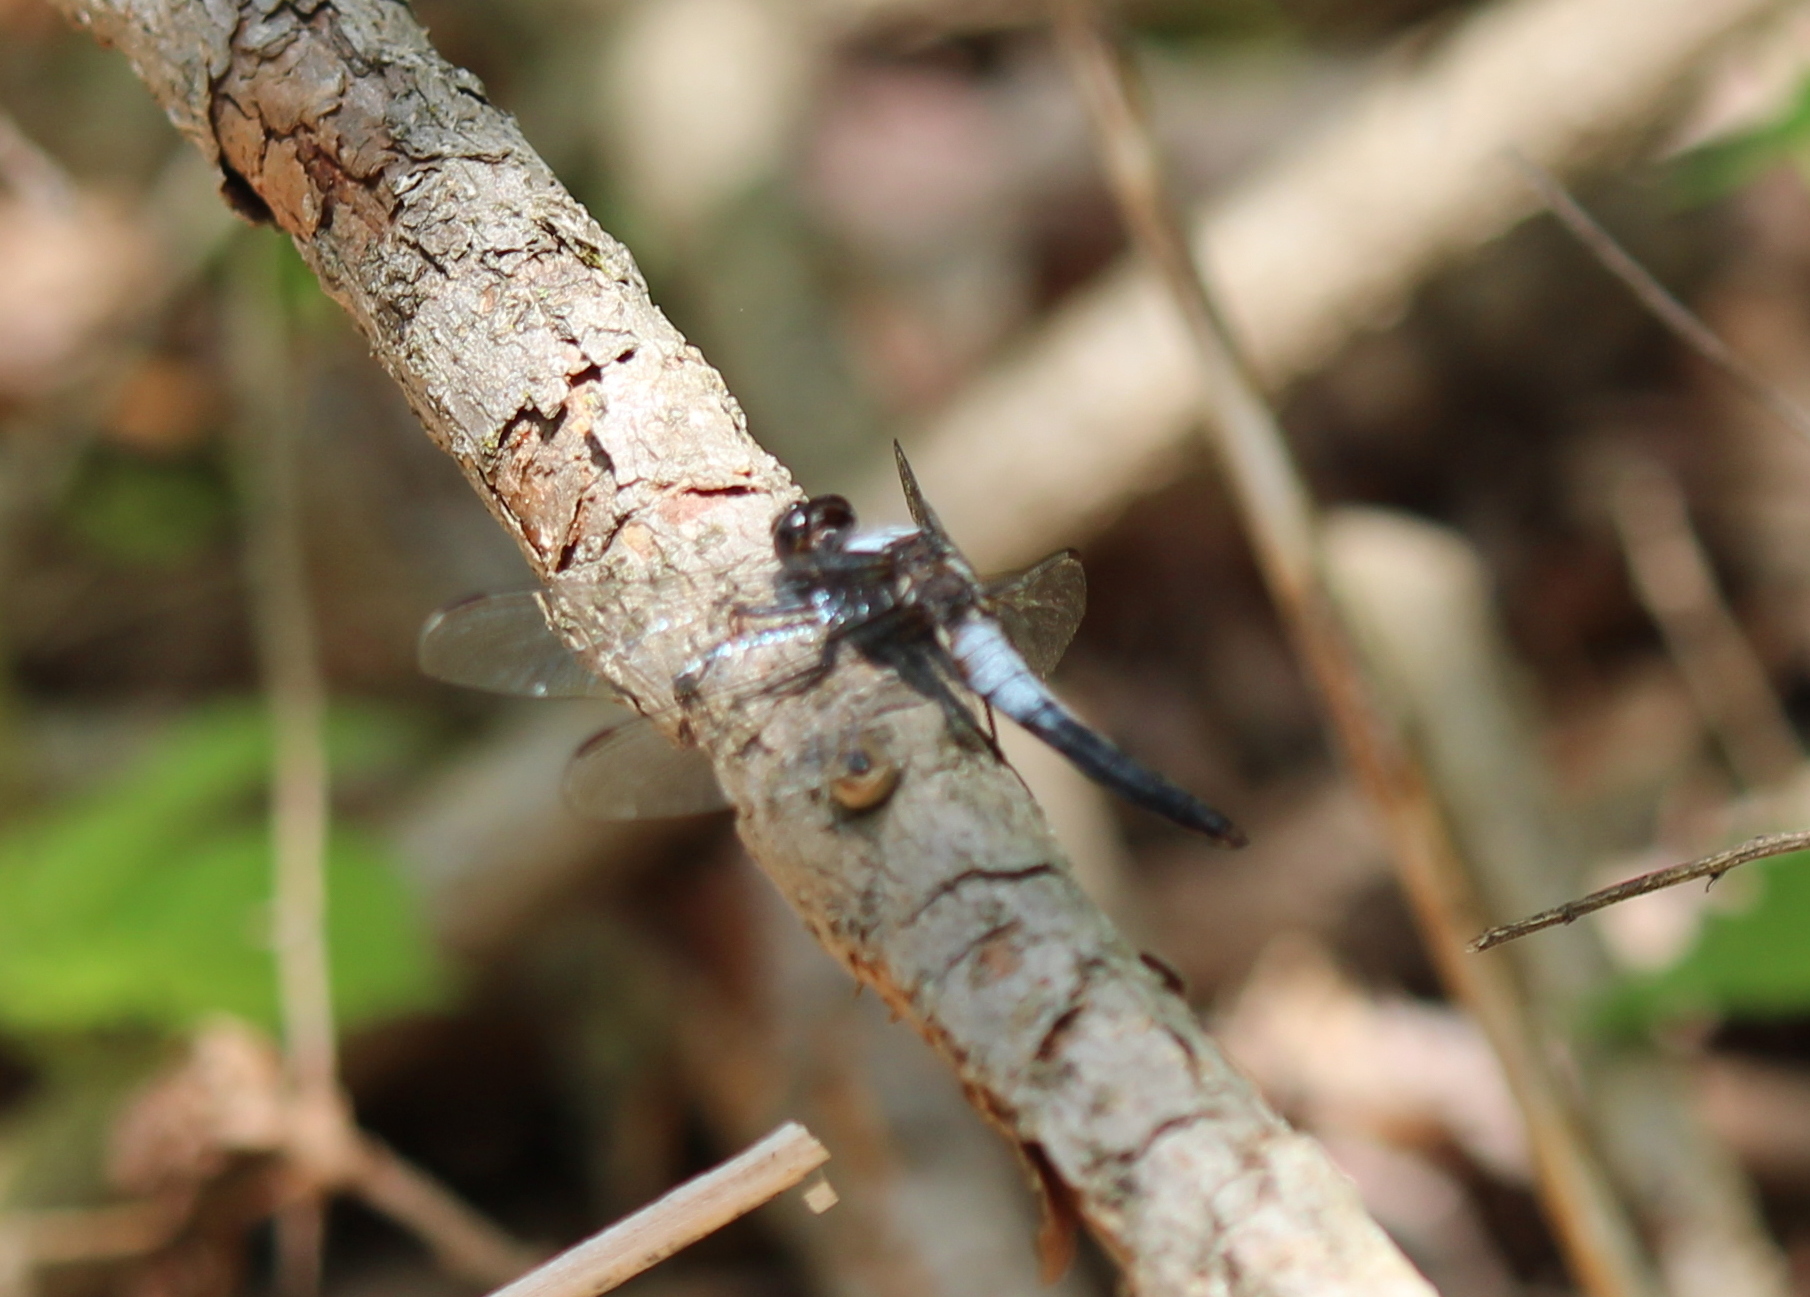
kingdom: Animalia
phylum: Arthropoda
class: Insecta
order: Odonata
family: Libellulidae
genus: Ladona
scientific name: Ladona julia
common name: Chalk-fronted corporal
